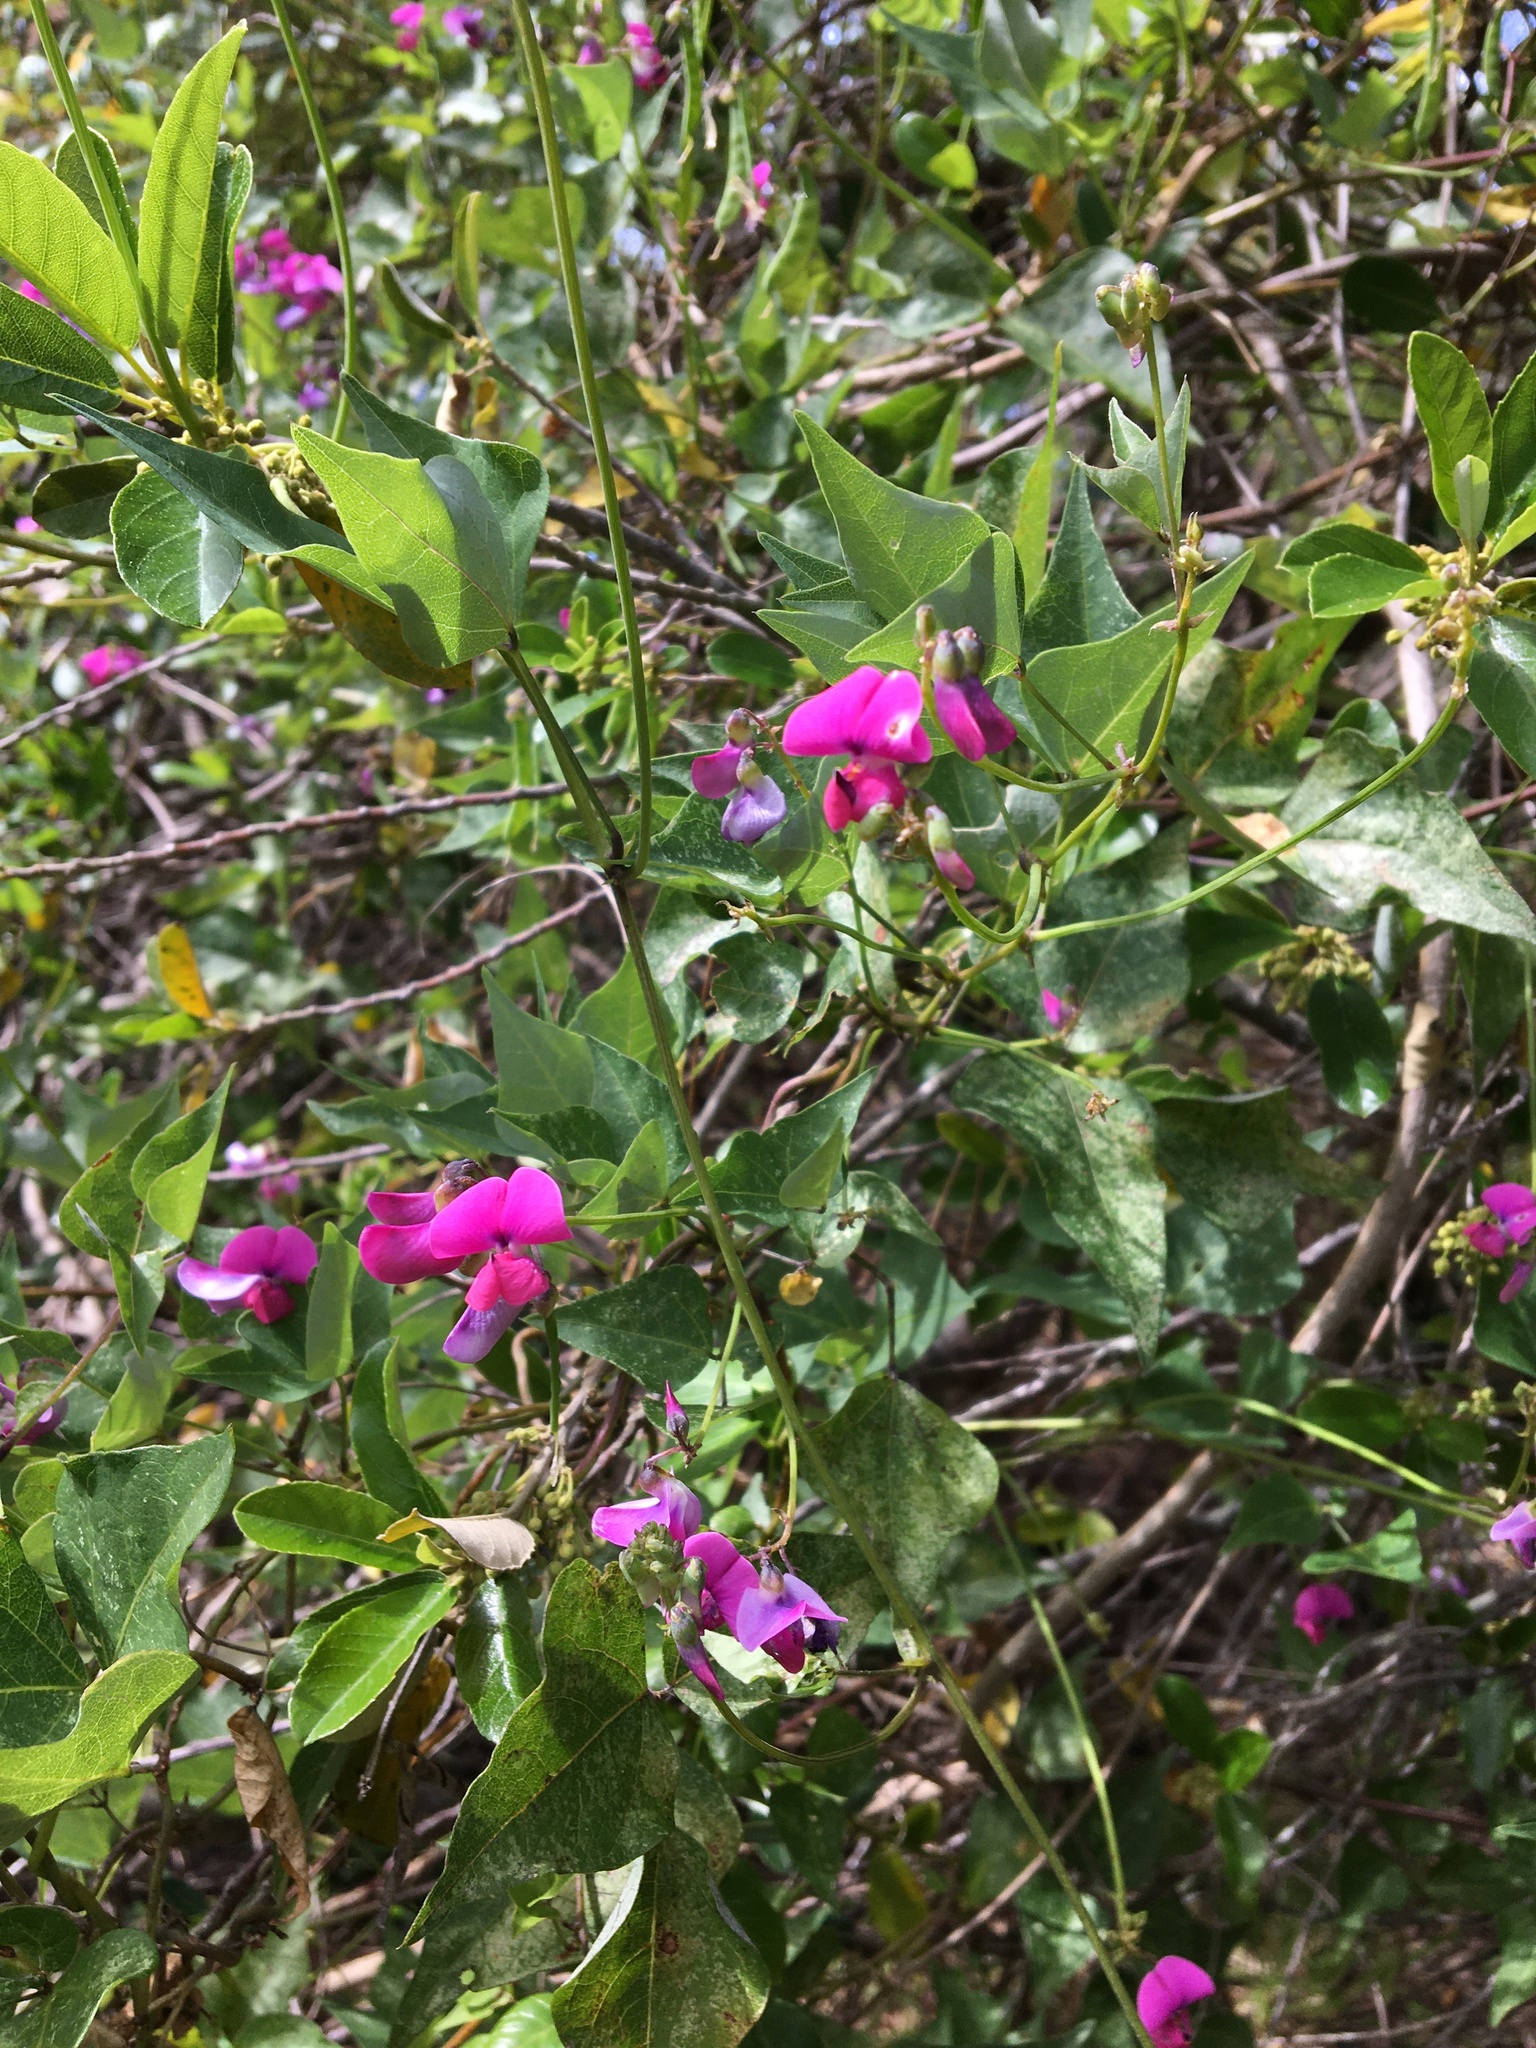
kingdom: Plantae
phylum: Tracheophyta
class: Magnoliopsida
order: Fabales
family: Fabaceae
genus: Dipogon
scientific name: Dipogon lignosus
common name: Okie bean
